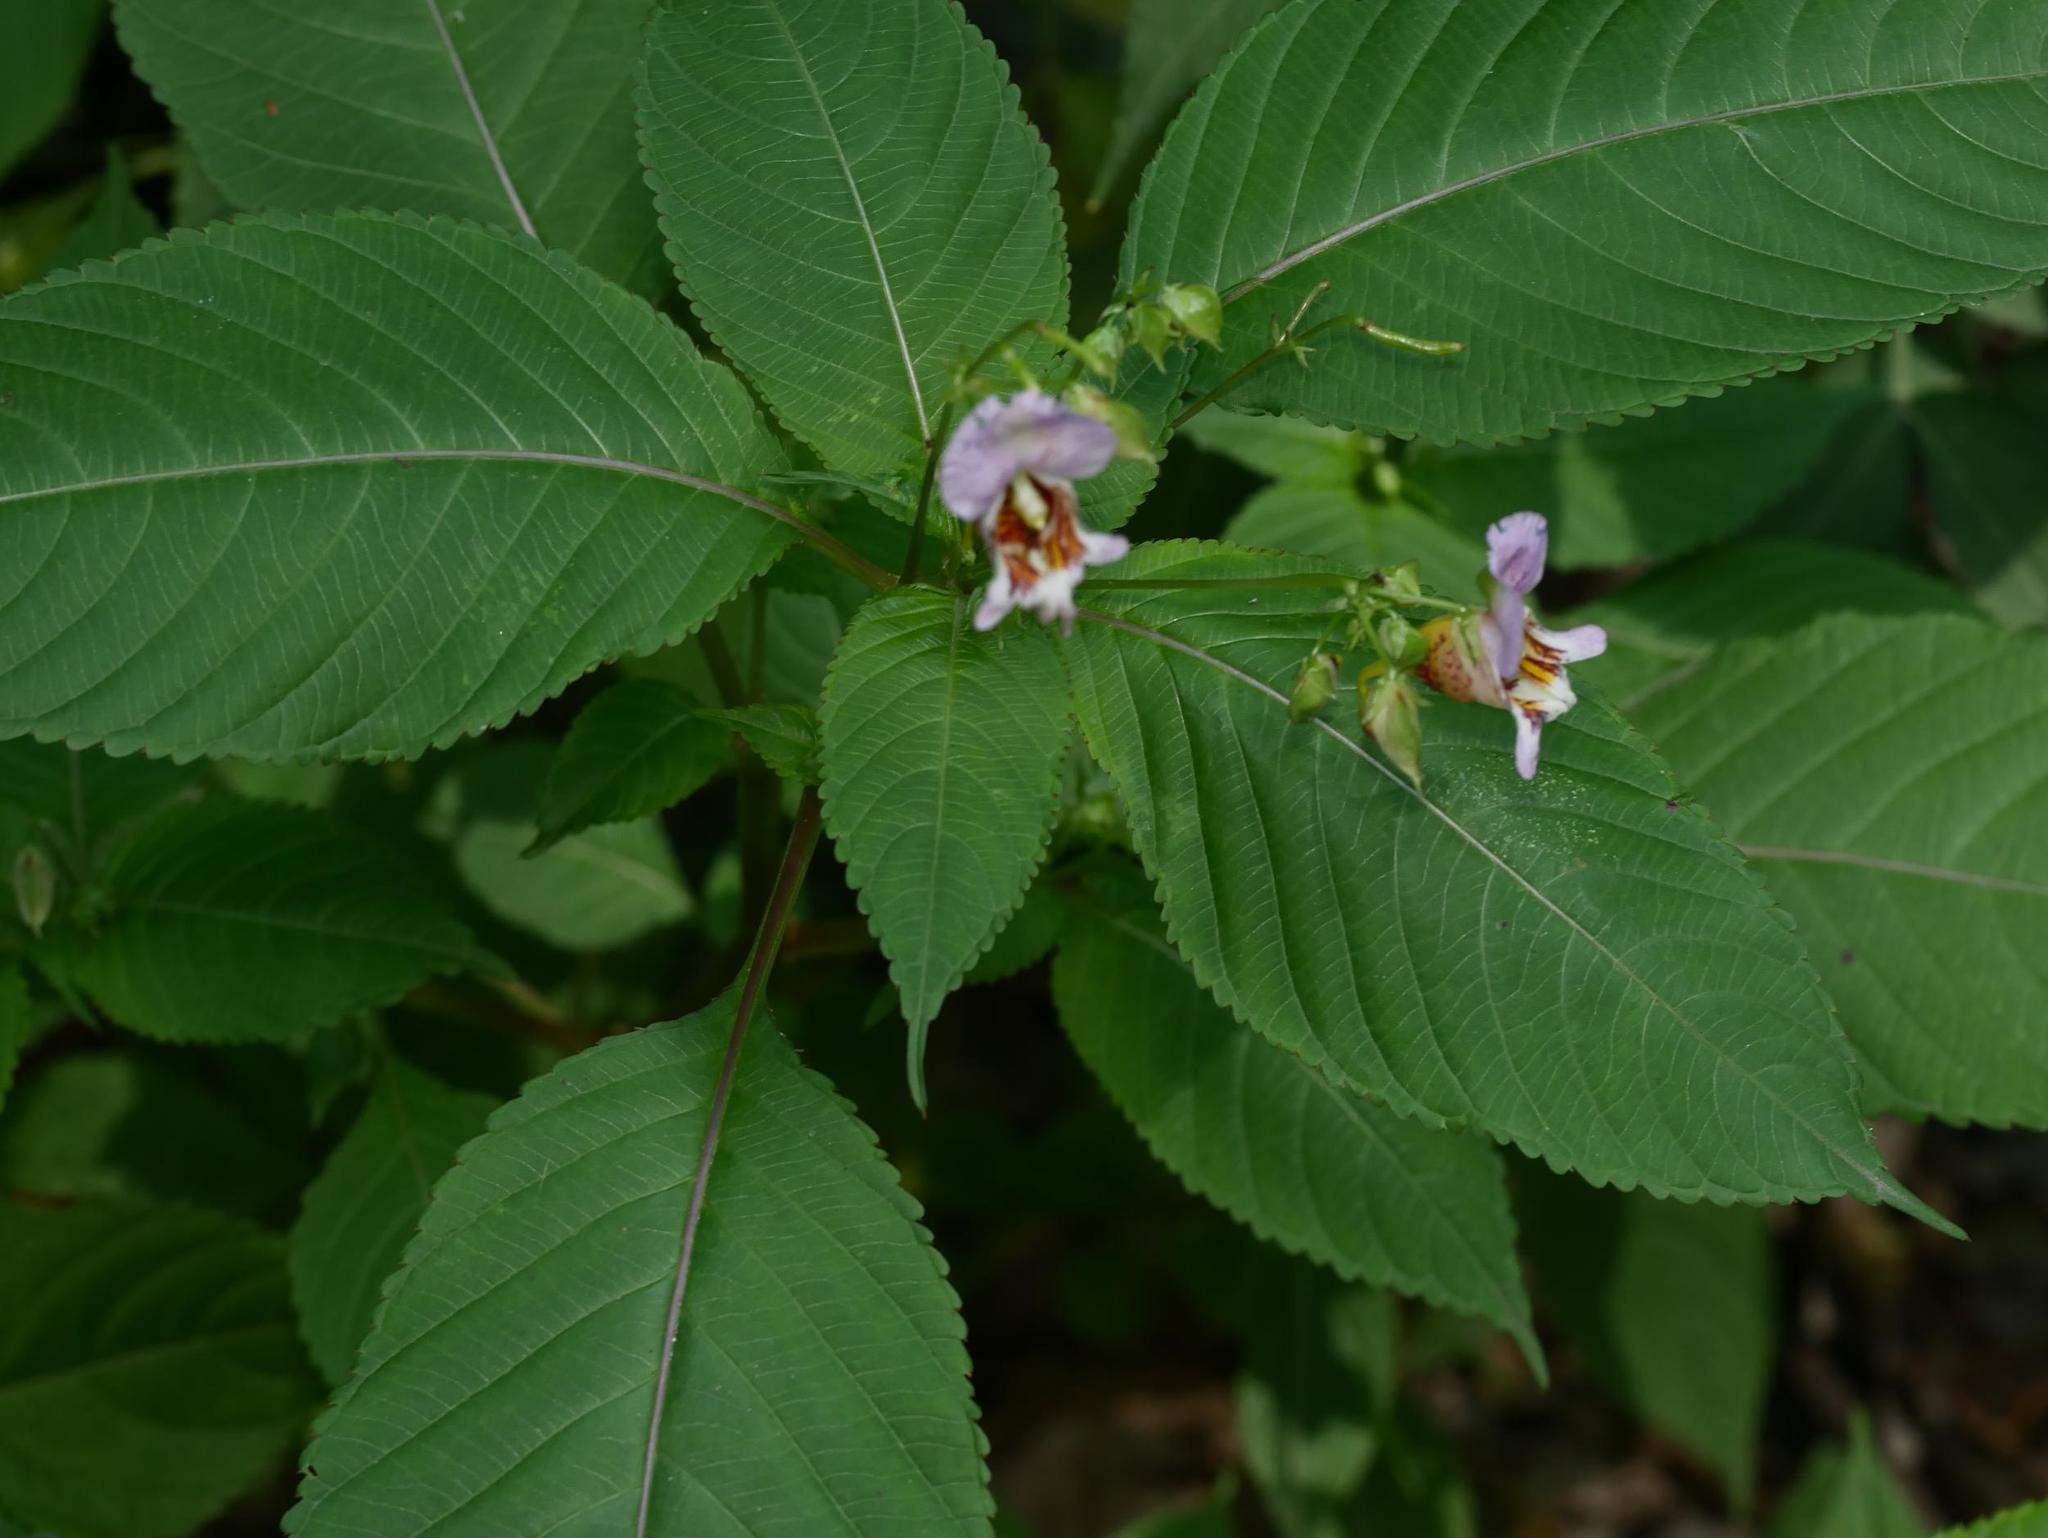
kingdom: Plantae
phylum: Tracheophyta
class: Magnoliopsida
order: Ericales
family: Balsaminaceae
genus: Impatiens
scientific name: Impatiens edgeworthii
